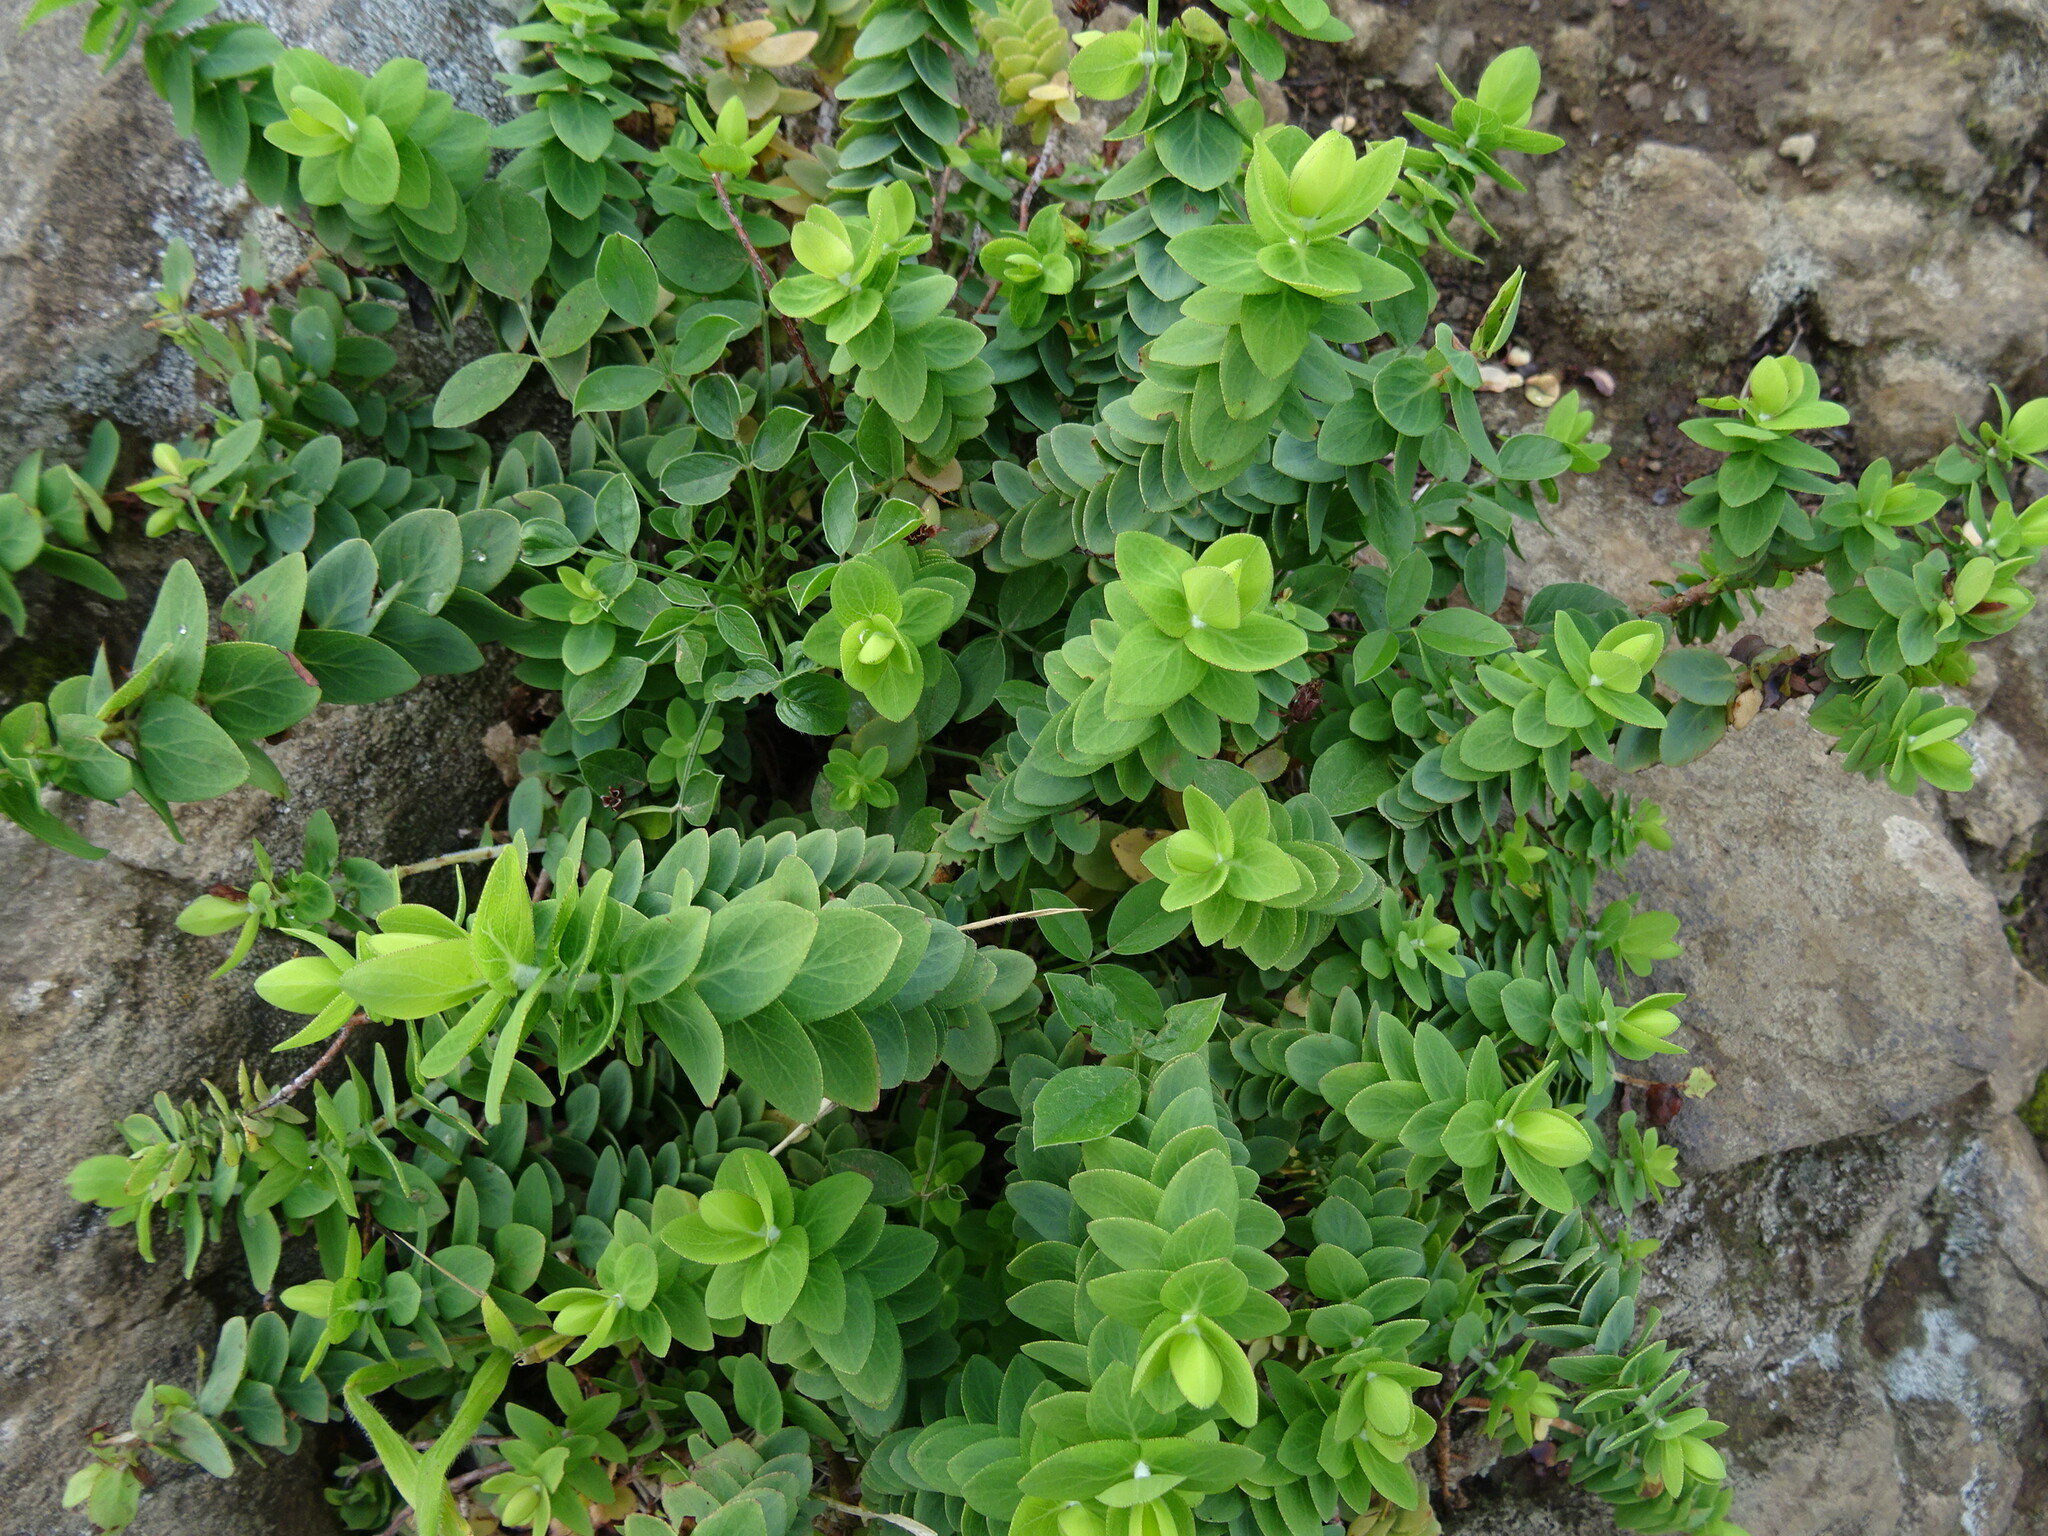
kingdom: Plantae
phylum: Tracheophyta
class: Magnoliopsida
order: Malpighiales
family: Hypericaceae
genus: Hypericum
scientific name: Hypericum reflexum
